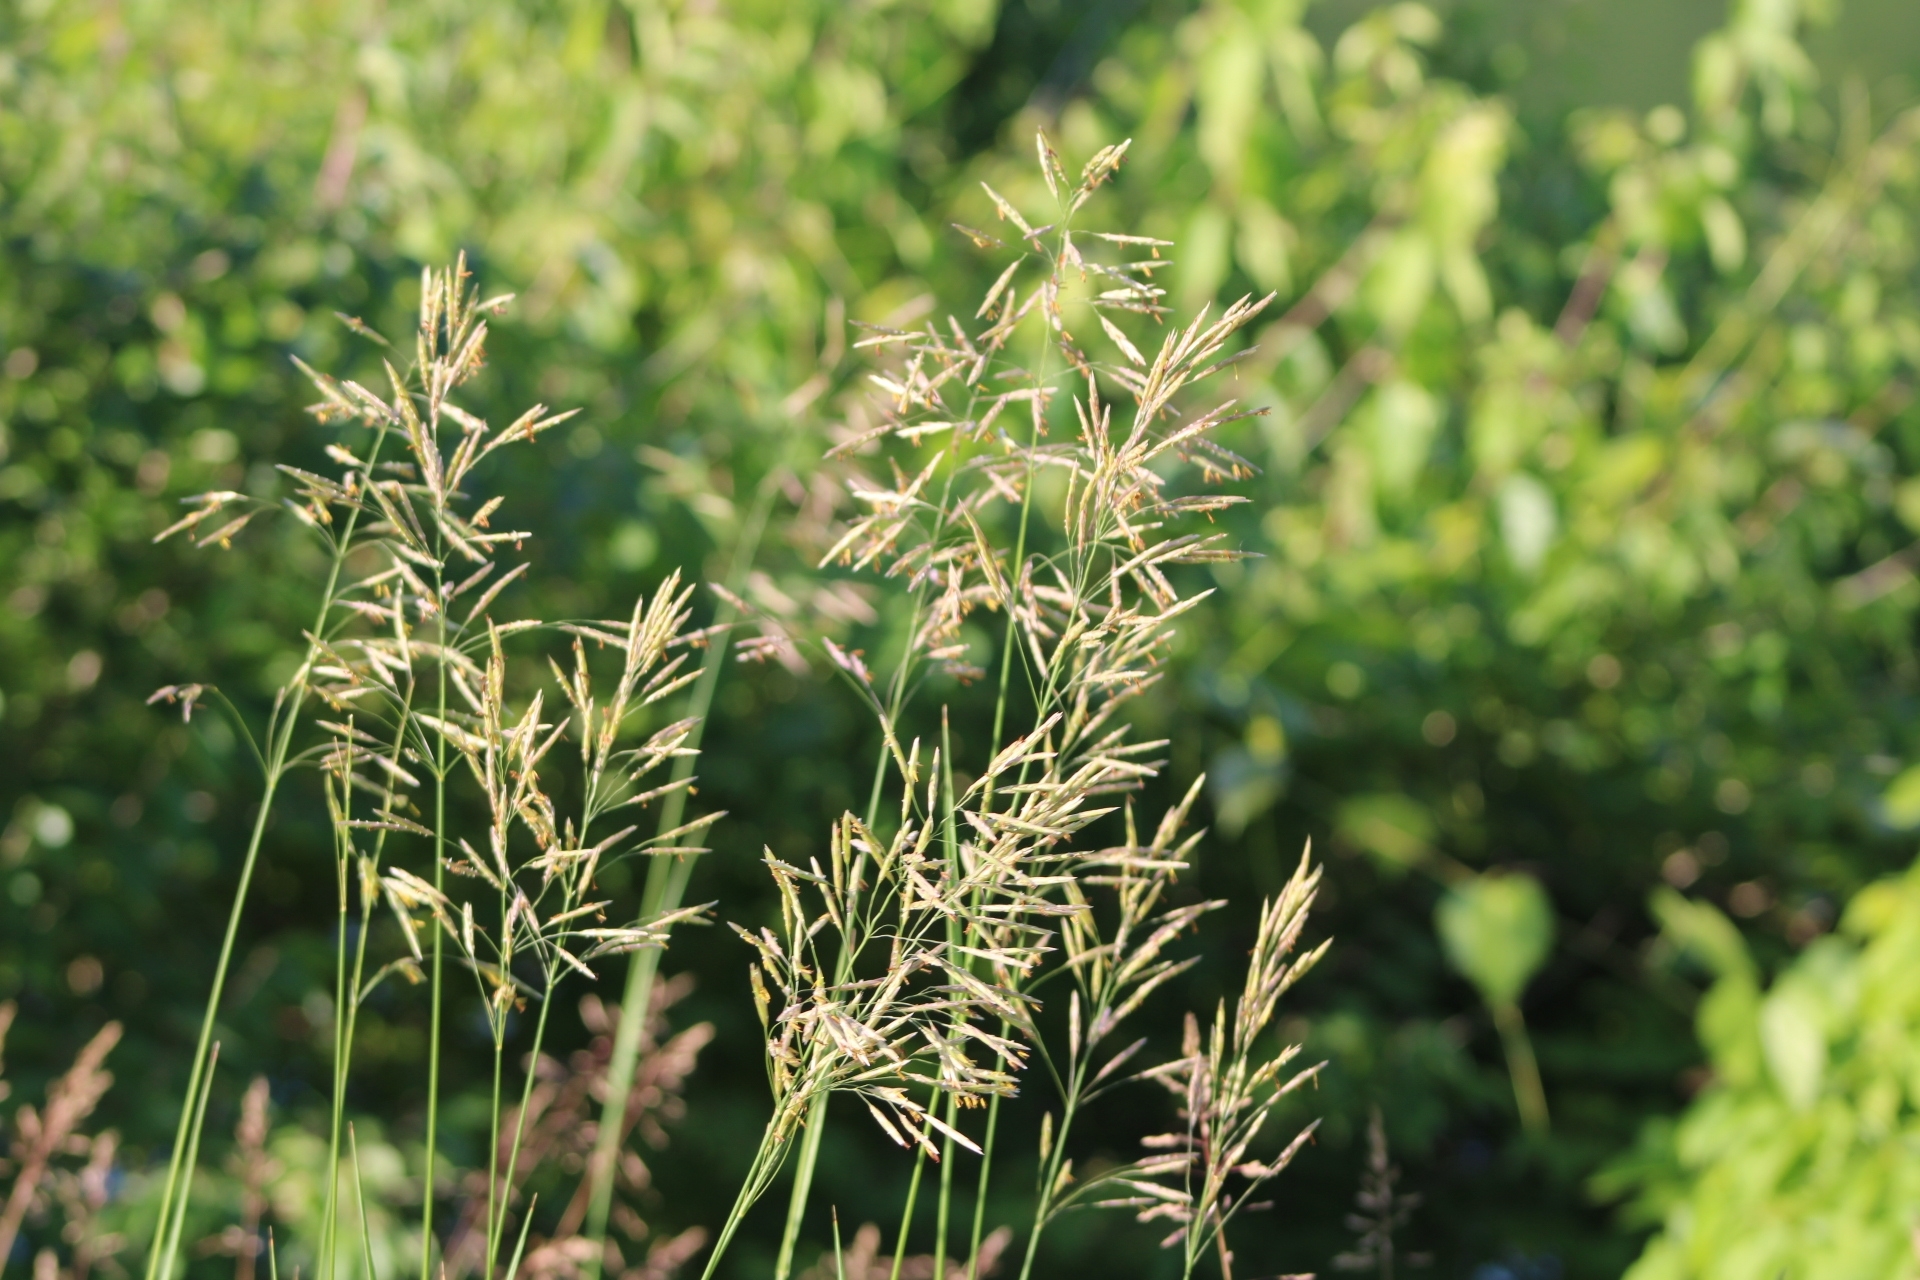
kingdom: Plantae
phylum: Tracheophyta
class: Liliopsida
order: Poales
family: Poaceae
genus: Bromus
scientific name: Bromus inermis
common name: Smooth brome
